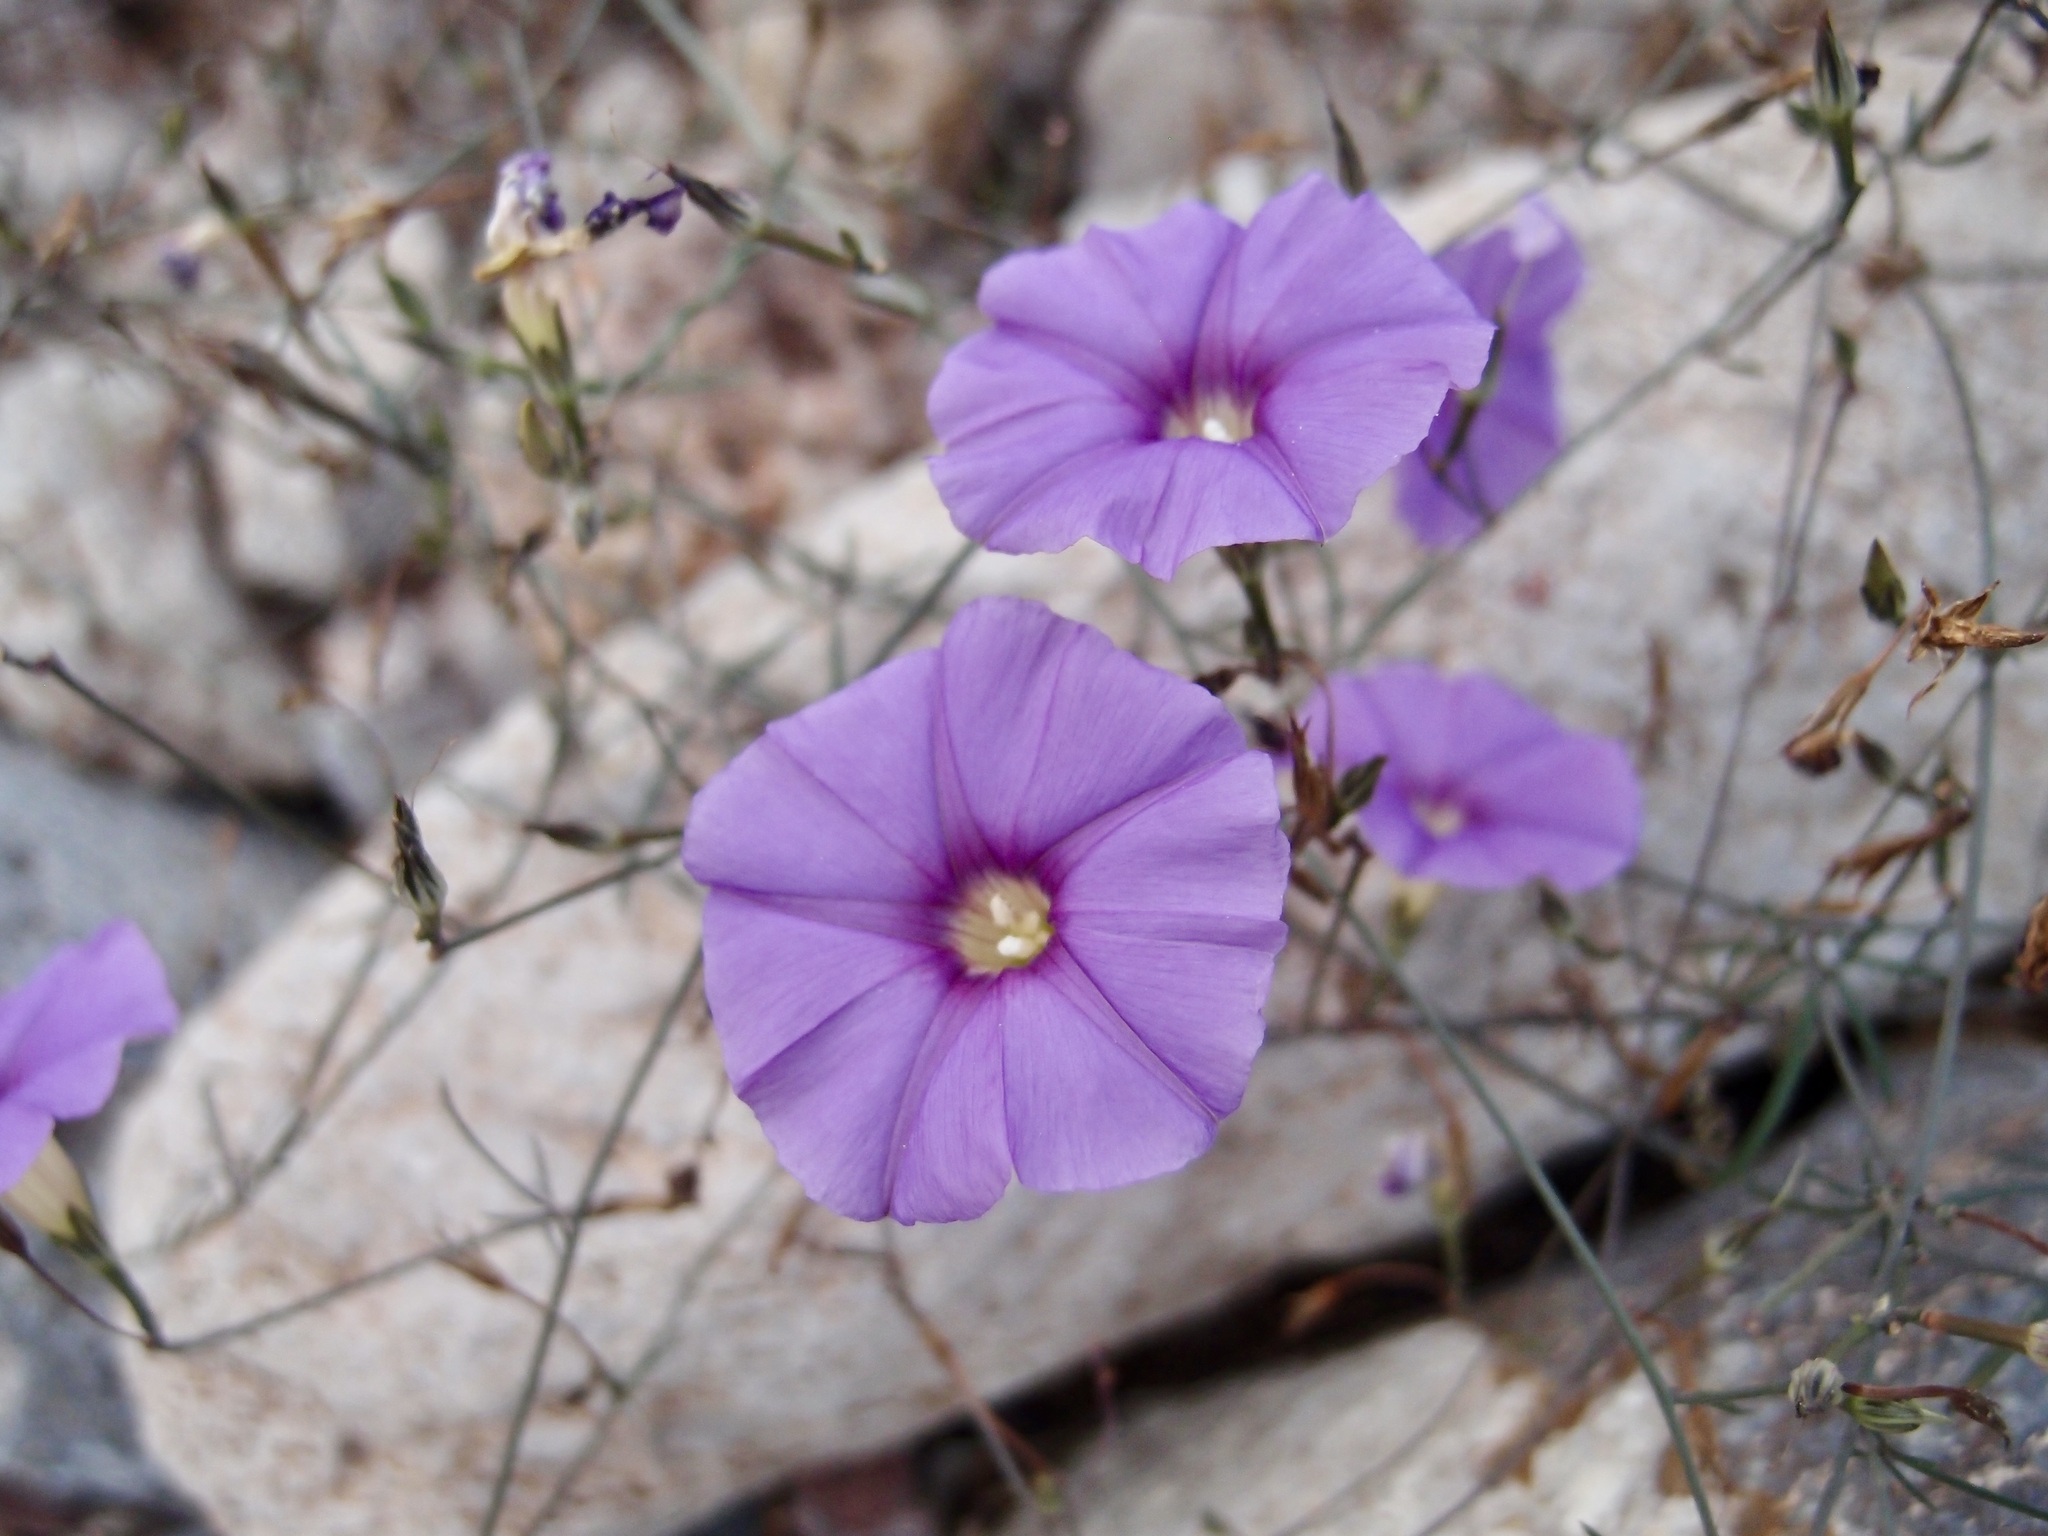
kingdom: Plantae
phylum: Tracheophyta
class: Magnoliopsida
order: Solanales
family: Convolvulaceae
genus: Ipomoea
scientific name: Ipomoea ternifolia
